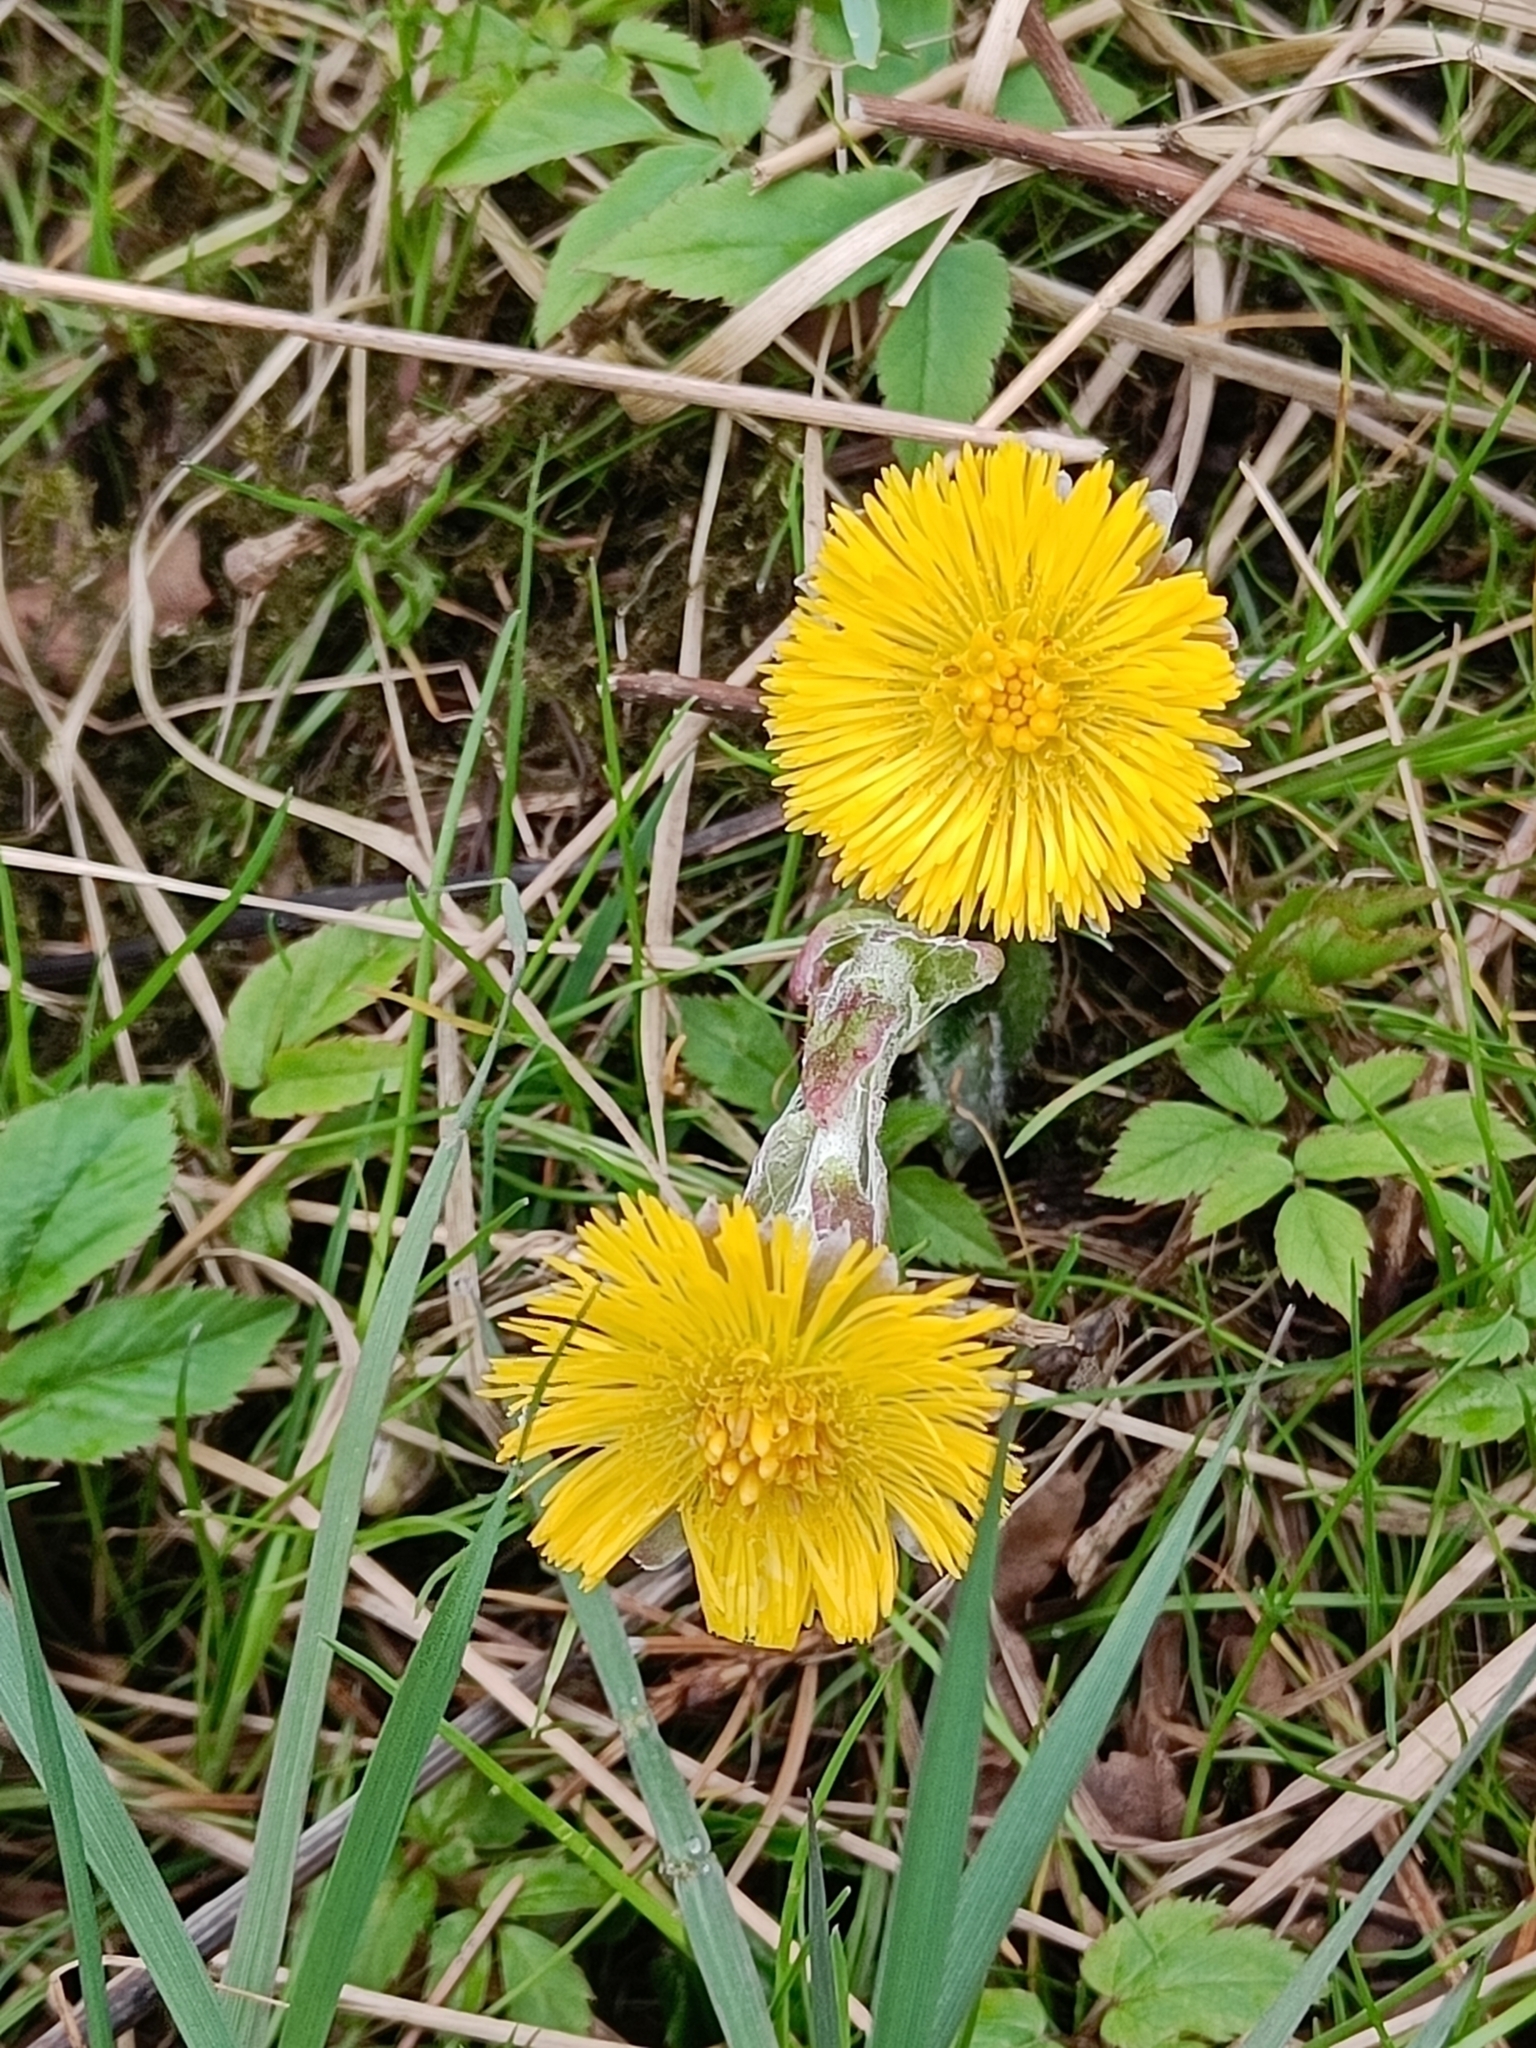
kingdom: Plantae
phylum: Tracheophyta
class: Magnoliopsida
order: Asterales
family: Asteraceae
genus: Tussilago
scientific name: Tussilago farfara
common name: Coltsfoot
